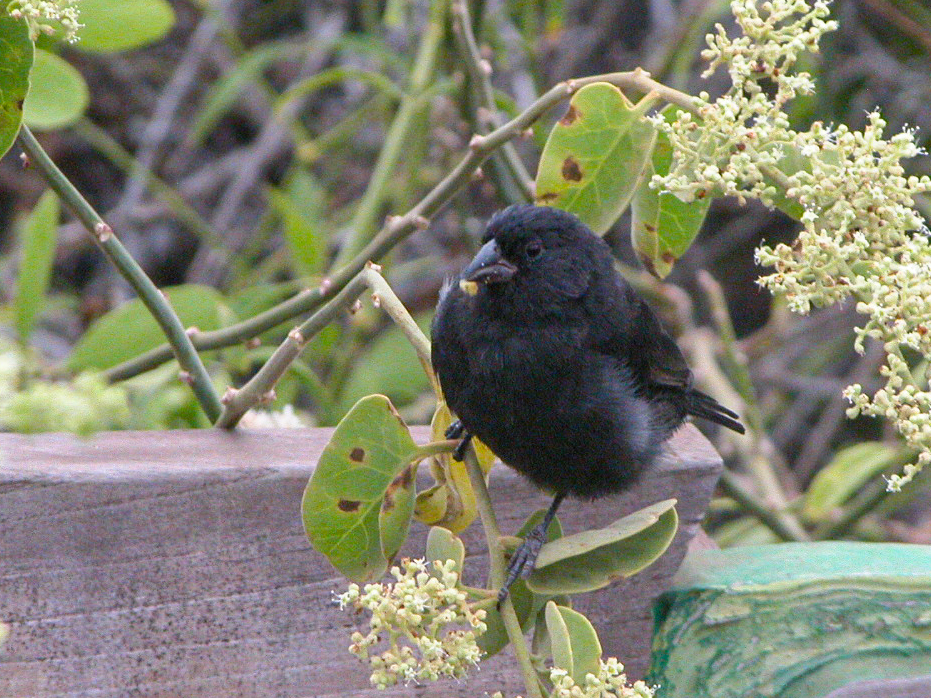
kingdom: Animalia
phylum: Chordata
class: Aves
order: Passeriformes
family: Thraupidae
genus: Geospiza
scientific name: Geospiza fuliginosa
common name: Small ground finch
